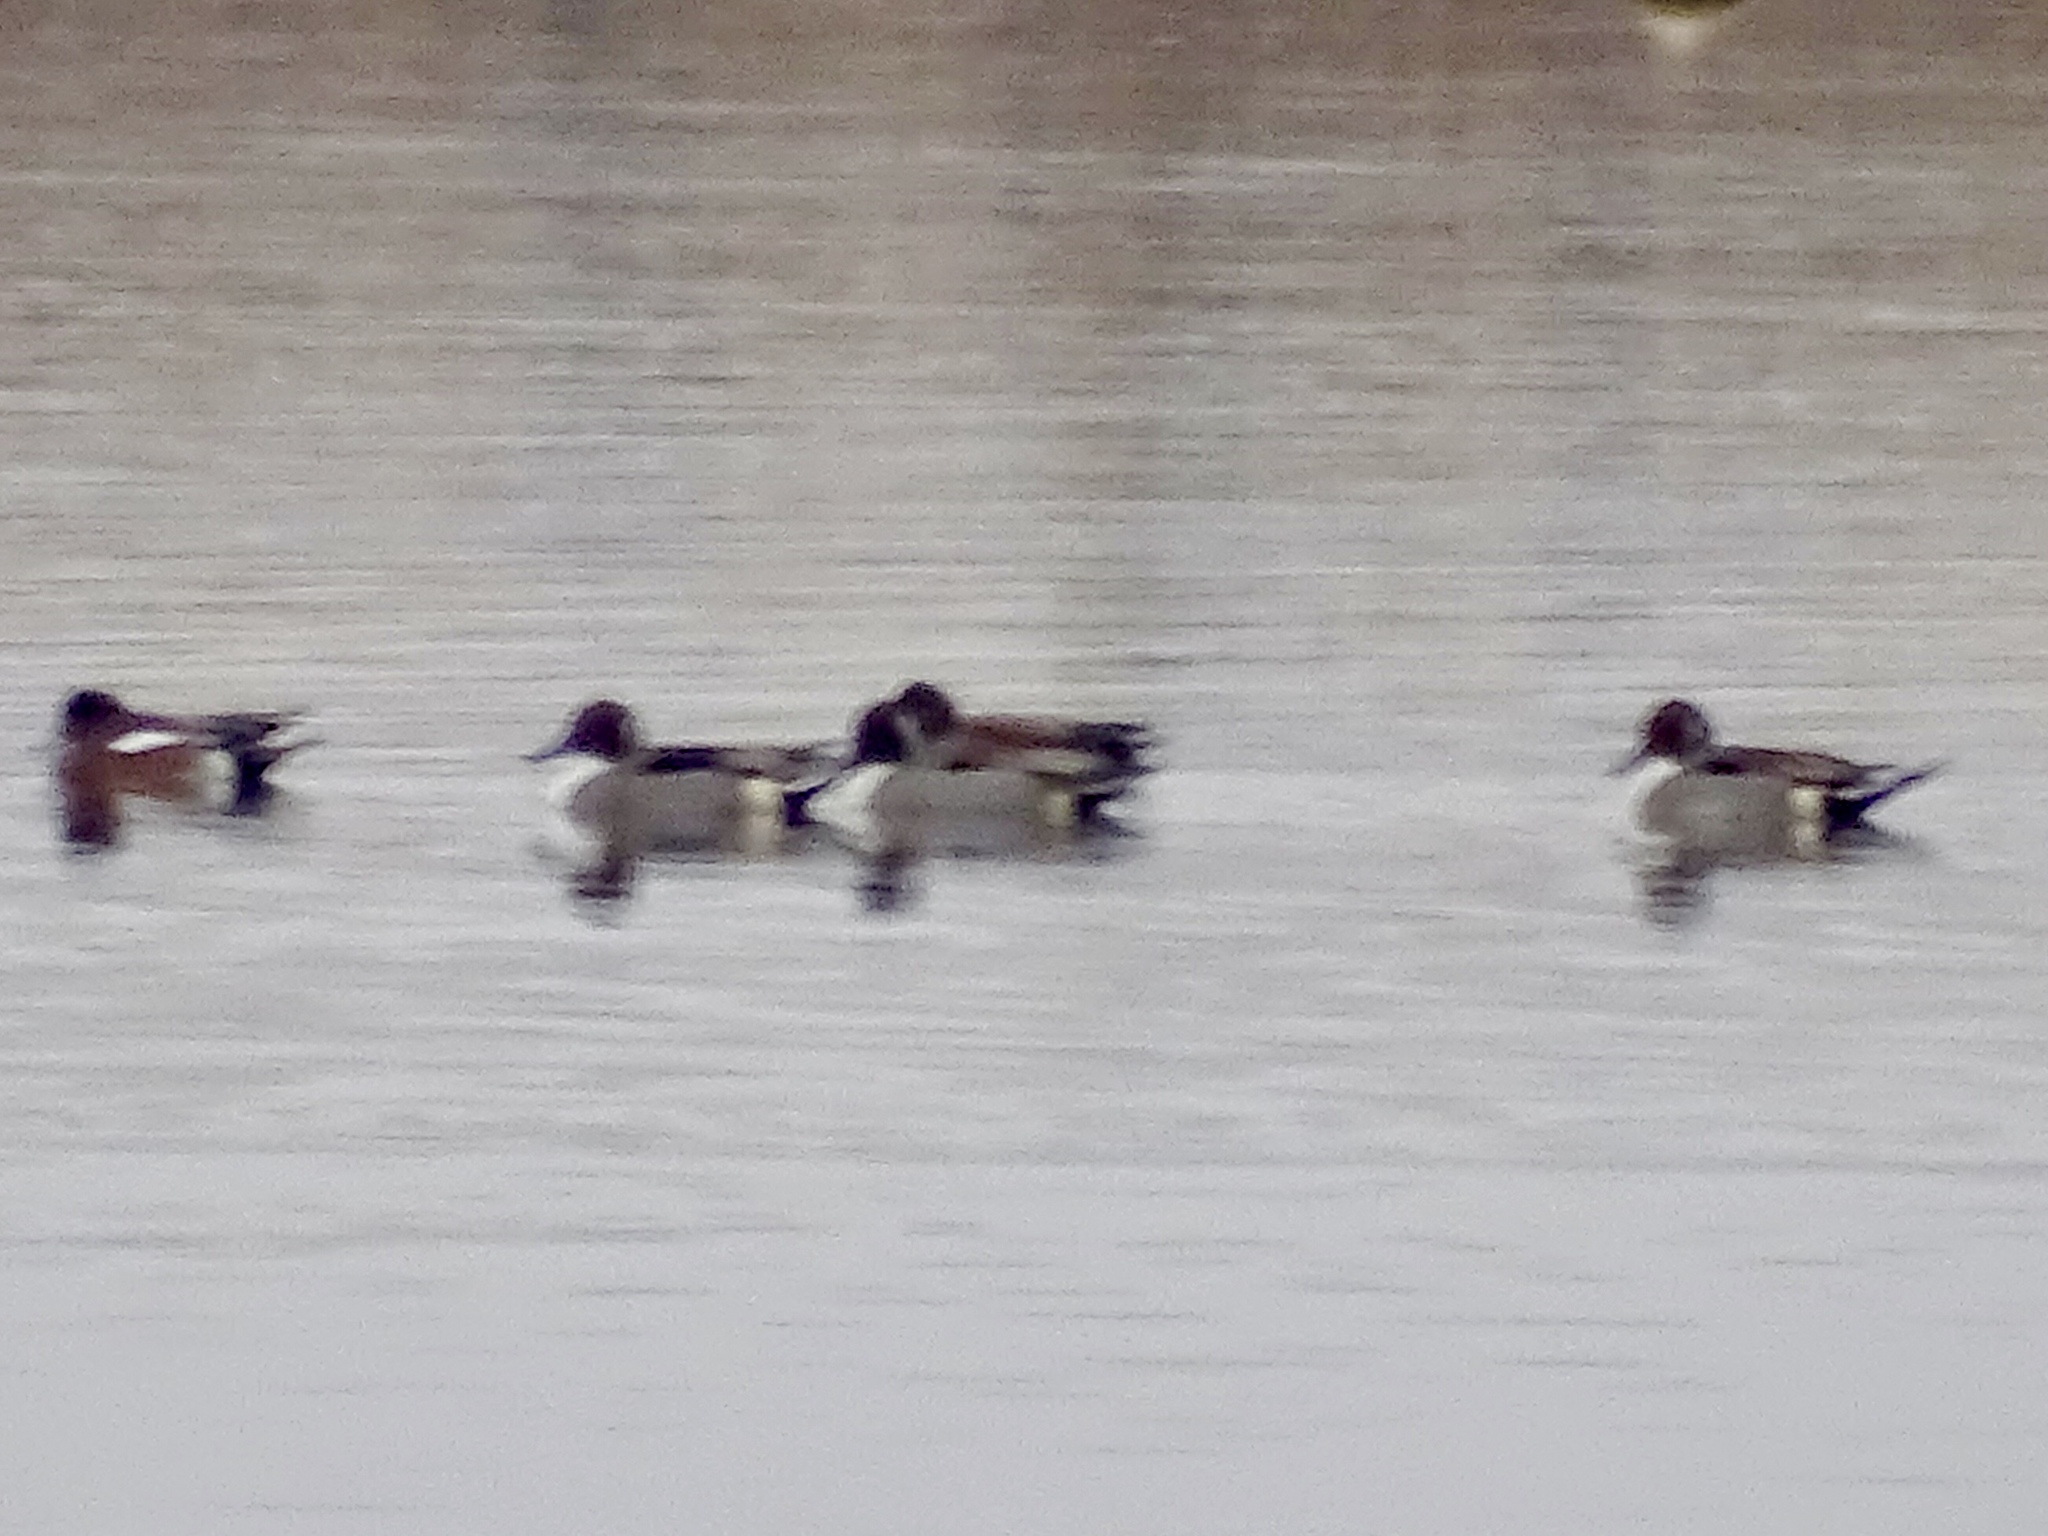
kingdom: Animalia
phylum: Chordata
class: Aves
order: Anseriformes
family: Anatidae
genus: Anas
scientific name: Anas acuta
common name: Northern pintail
